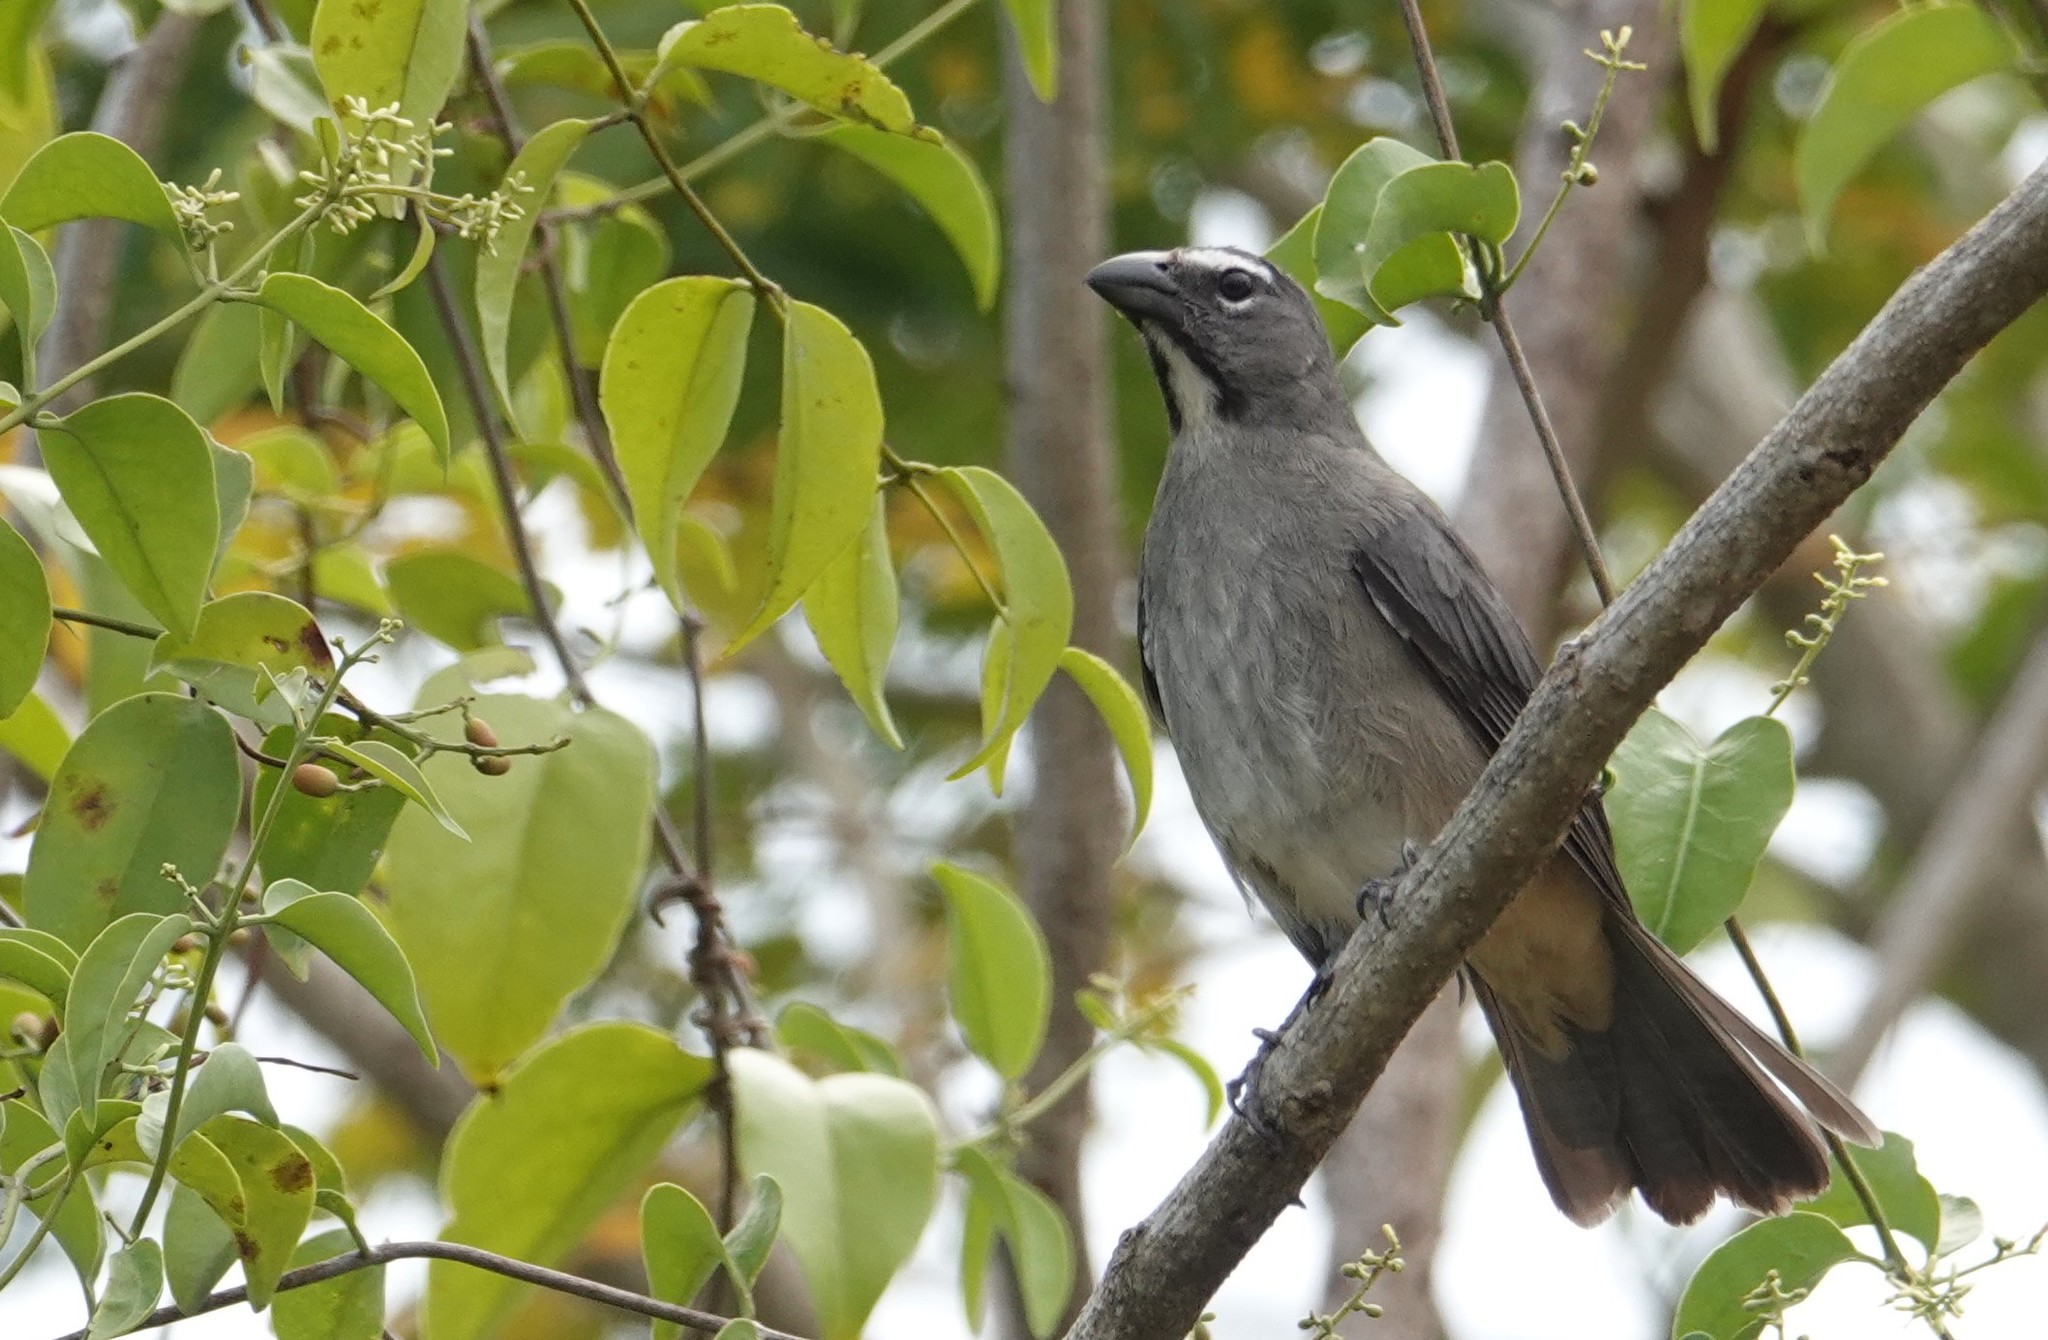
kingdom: Animalia
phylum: Chordata
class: Aves
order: Passeriformes
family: Thraupidae
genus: Saltator
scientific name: Saltator olivascens
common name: Caribbean grey saltator
